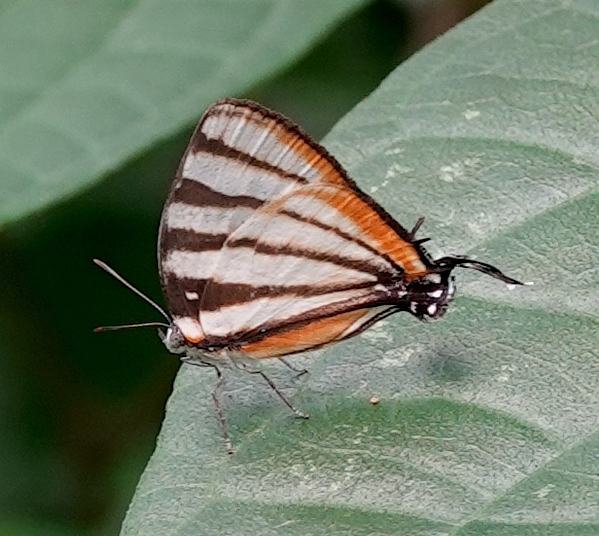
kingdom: Animalia
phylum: Arthropoda
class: Insecta
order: Lepidoptera
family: Lycaenidae
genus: Arawacus
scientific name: Arawacus togarna
